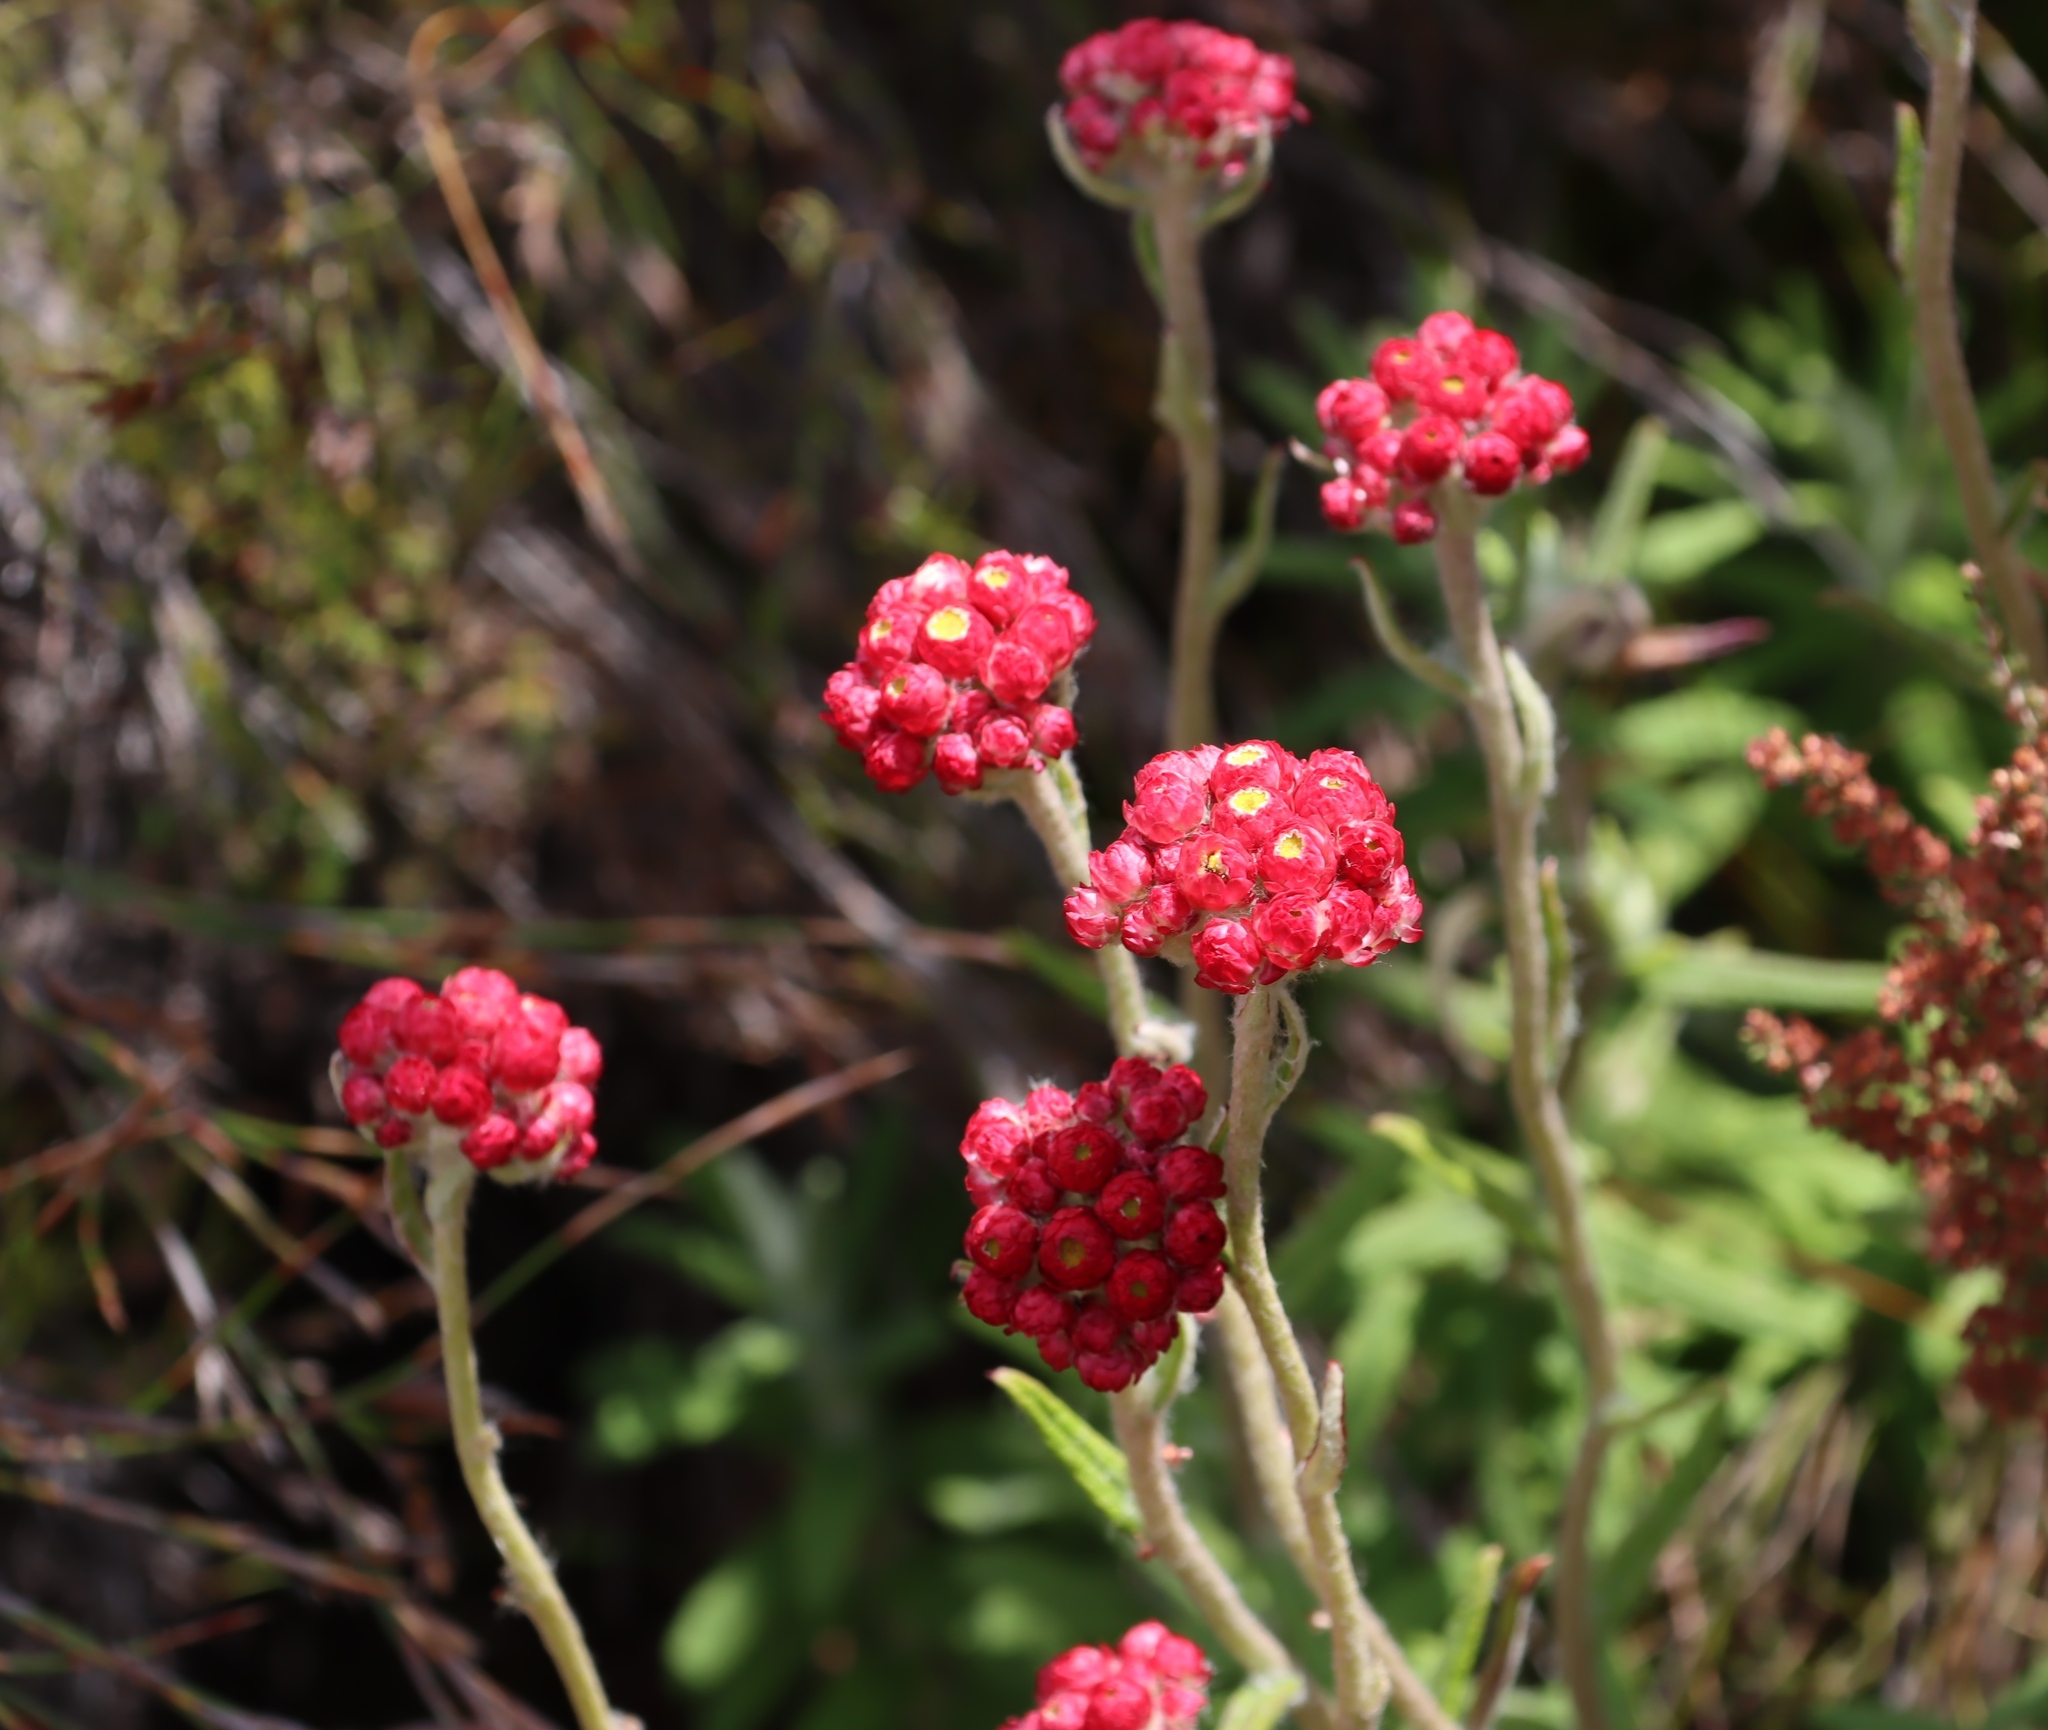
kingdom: Plantae
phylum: Tracheophyta
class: Magnoliopsida
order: Asterales
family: Asteraceae
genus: Helichrysum
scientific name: Helichrysum felinum
